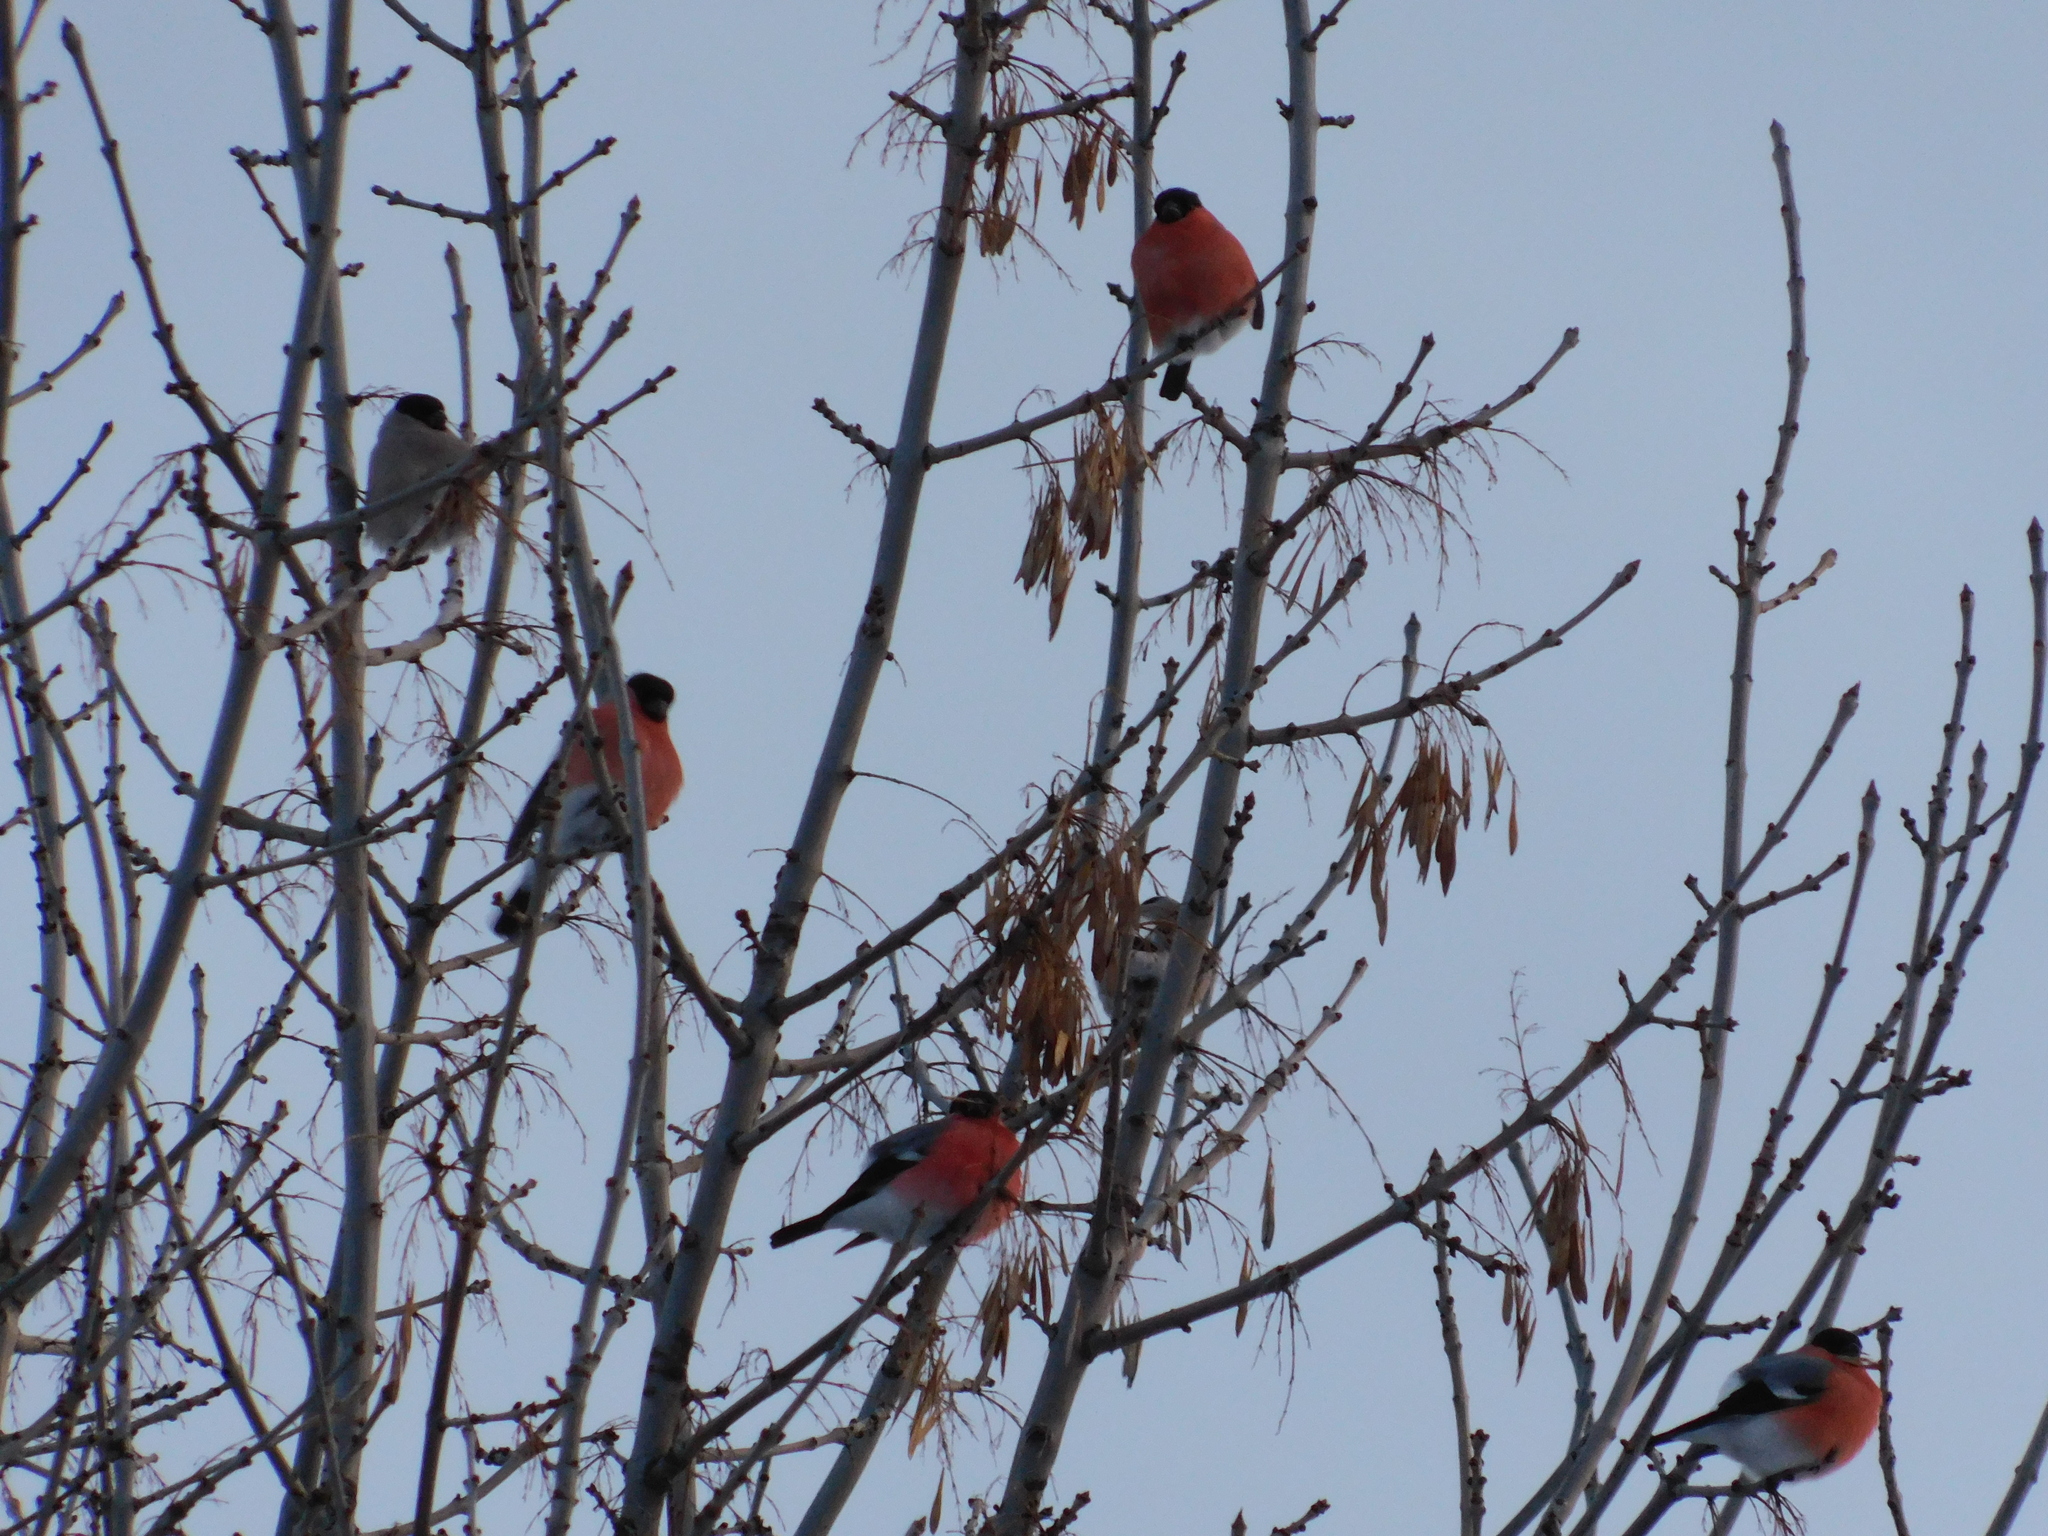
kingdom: Animalia
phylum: Chordata
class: Aves
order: Passeriformes
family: Fringillidae
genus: Pyrrhula
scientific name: Pyrrhula pyrrhula
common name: Eurasian bullfinch
